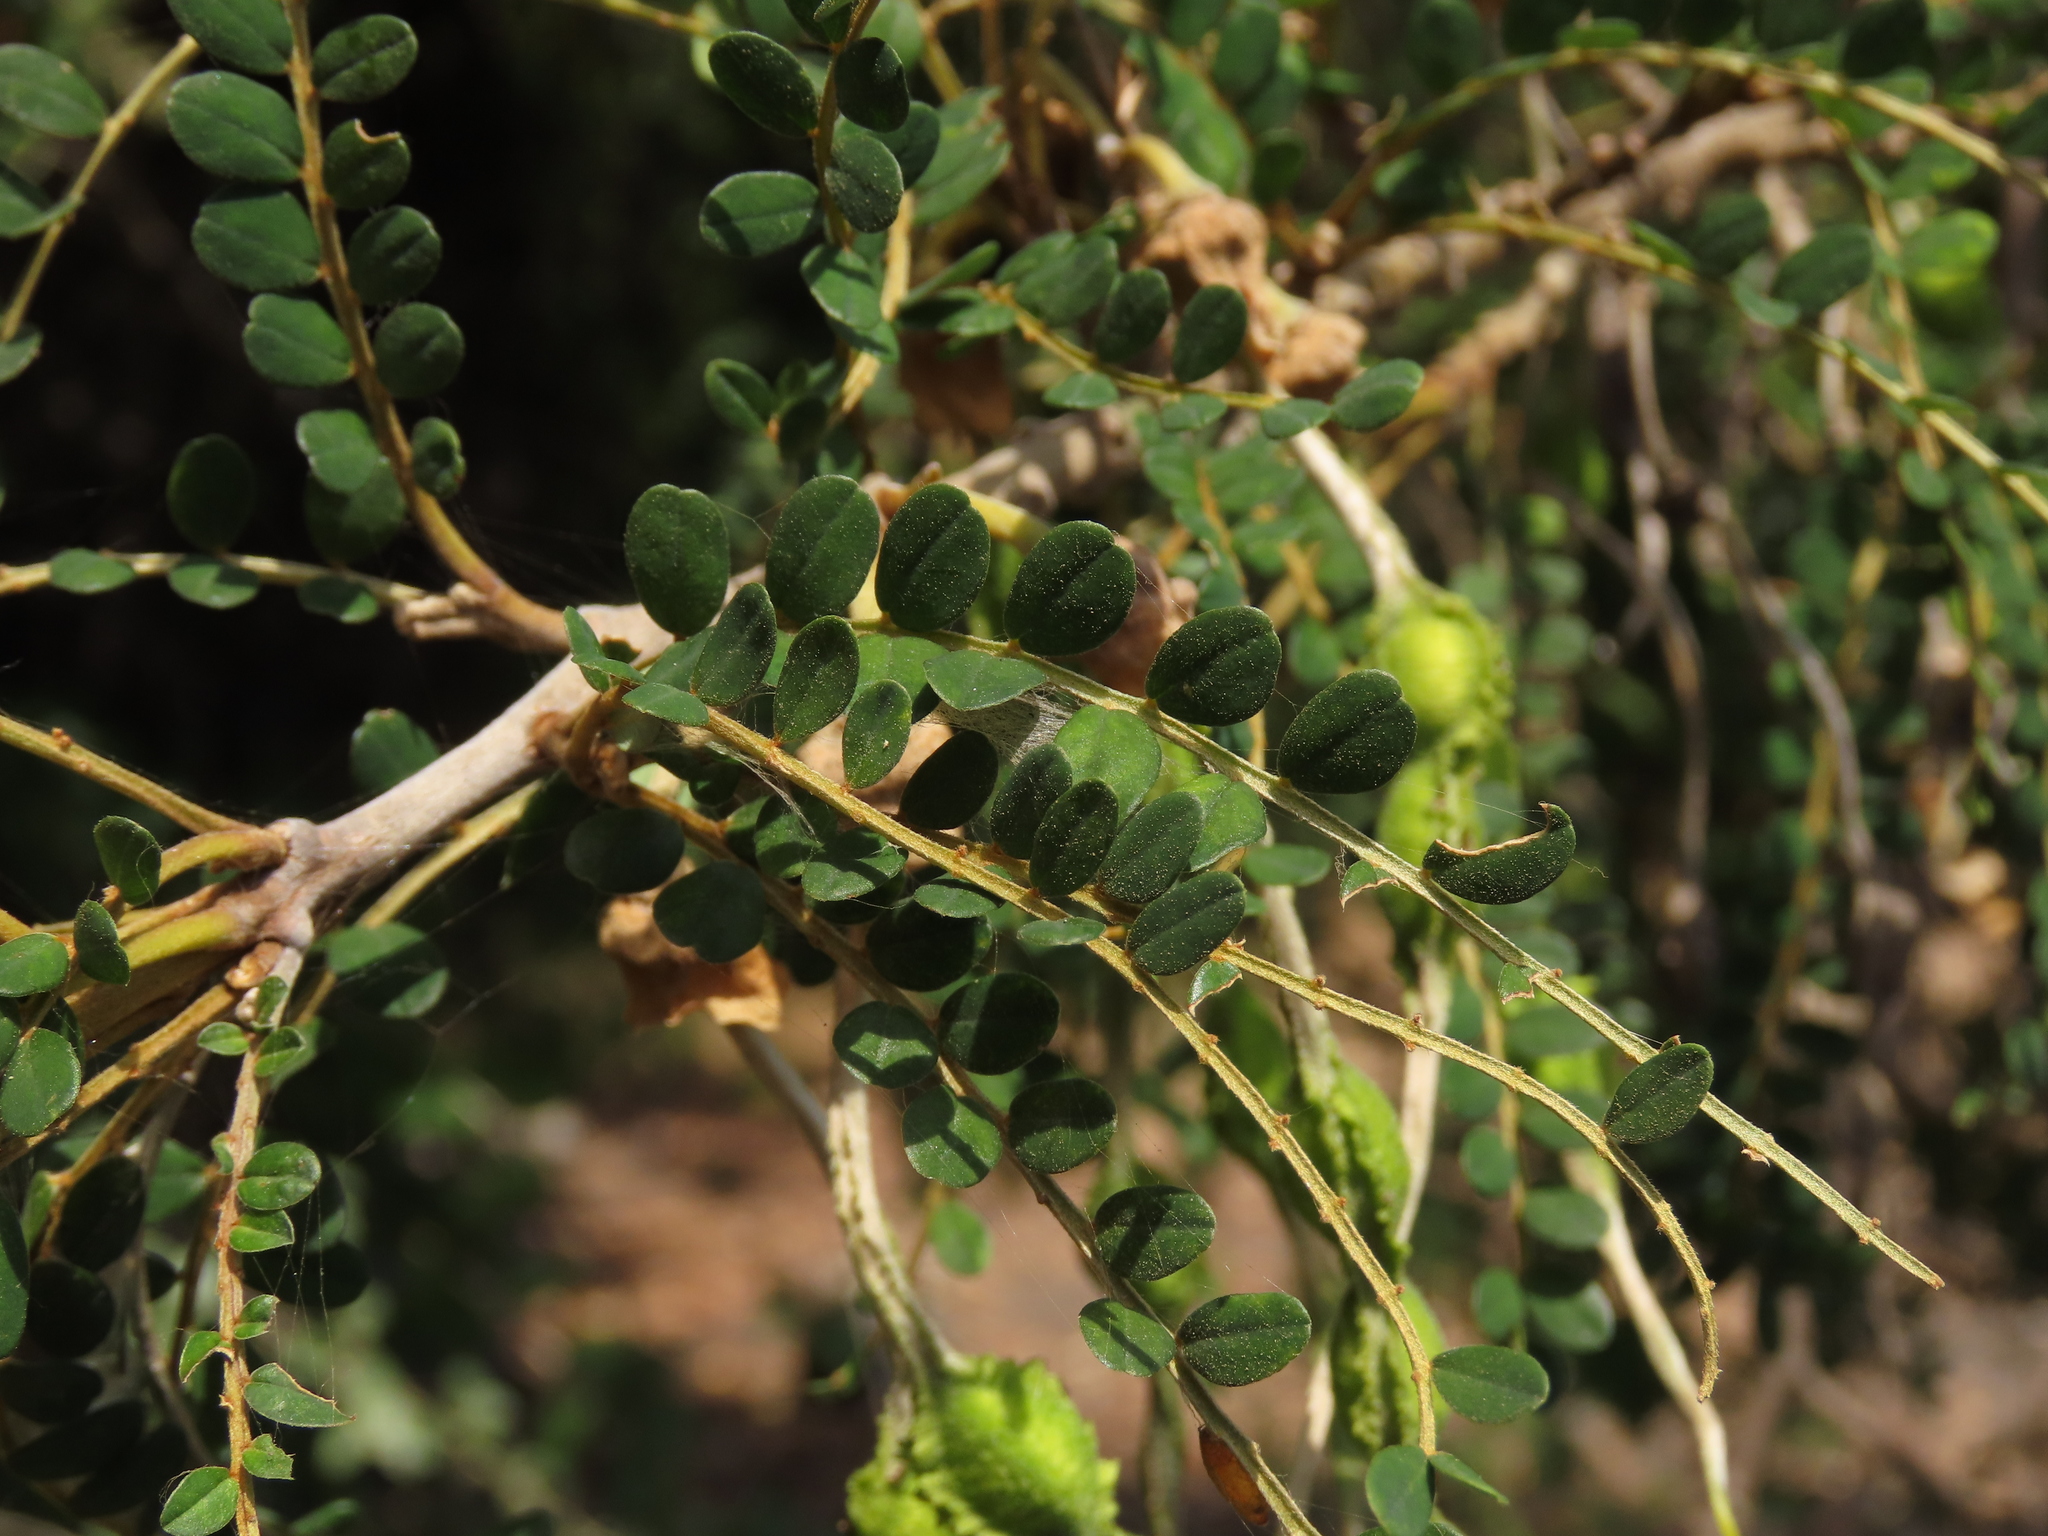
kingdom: Plantae
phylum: Tracheophyta
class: Magnoliopsida
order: Fabales
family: Fabaceae
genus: Sophora
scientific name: Sophora cassioides
